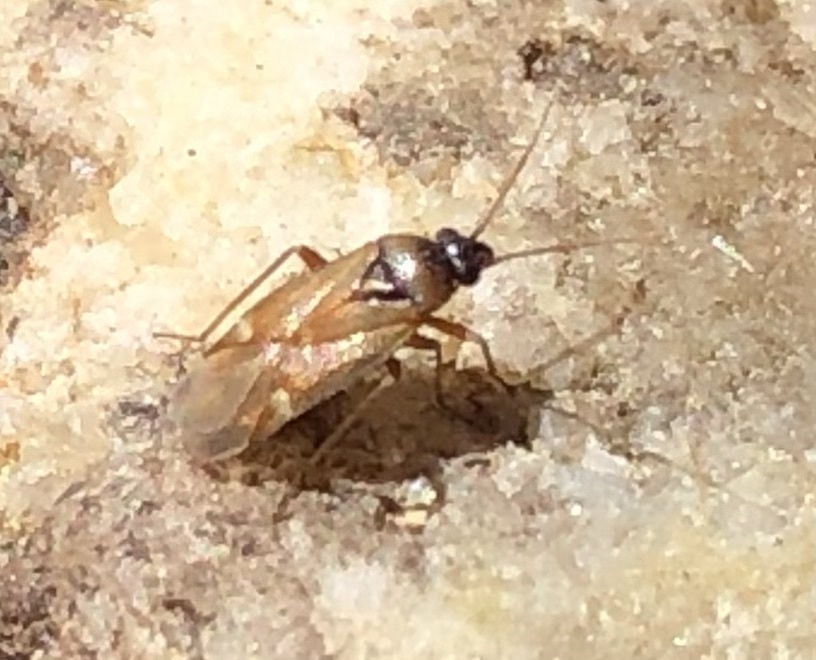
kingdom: Animalia
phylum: Arthropoda
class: Insecta
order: Hemiptera
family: Miridae
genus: Plesiodema
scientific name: Plesiodema pinetella
